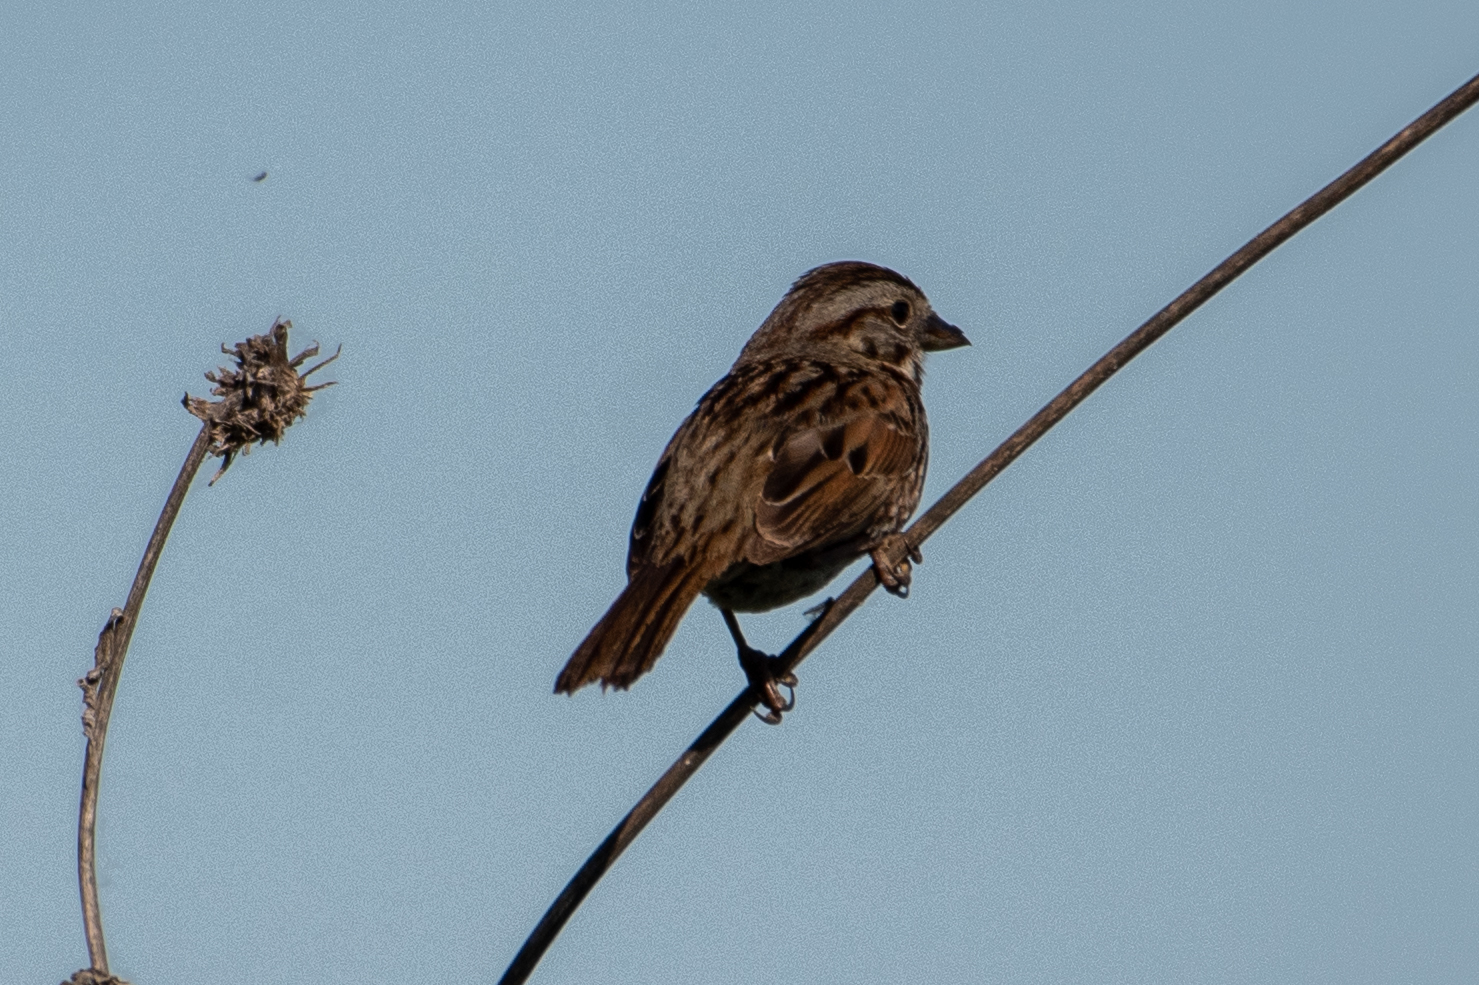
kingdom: Animalia
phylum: Chordata
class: Aves
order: Passeriformes
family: Passerellidae
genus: Melospiza
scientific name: Melospiza melodia
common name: Song sparrow
